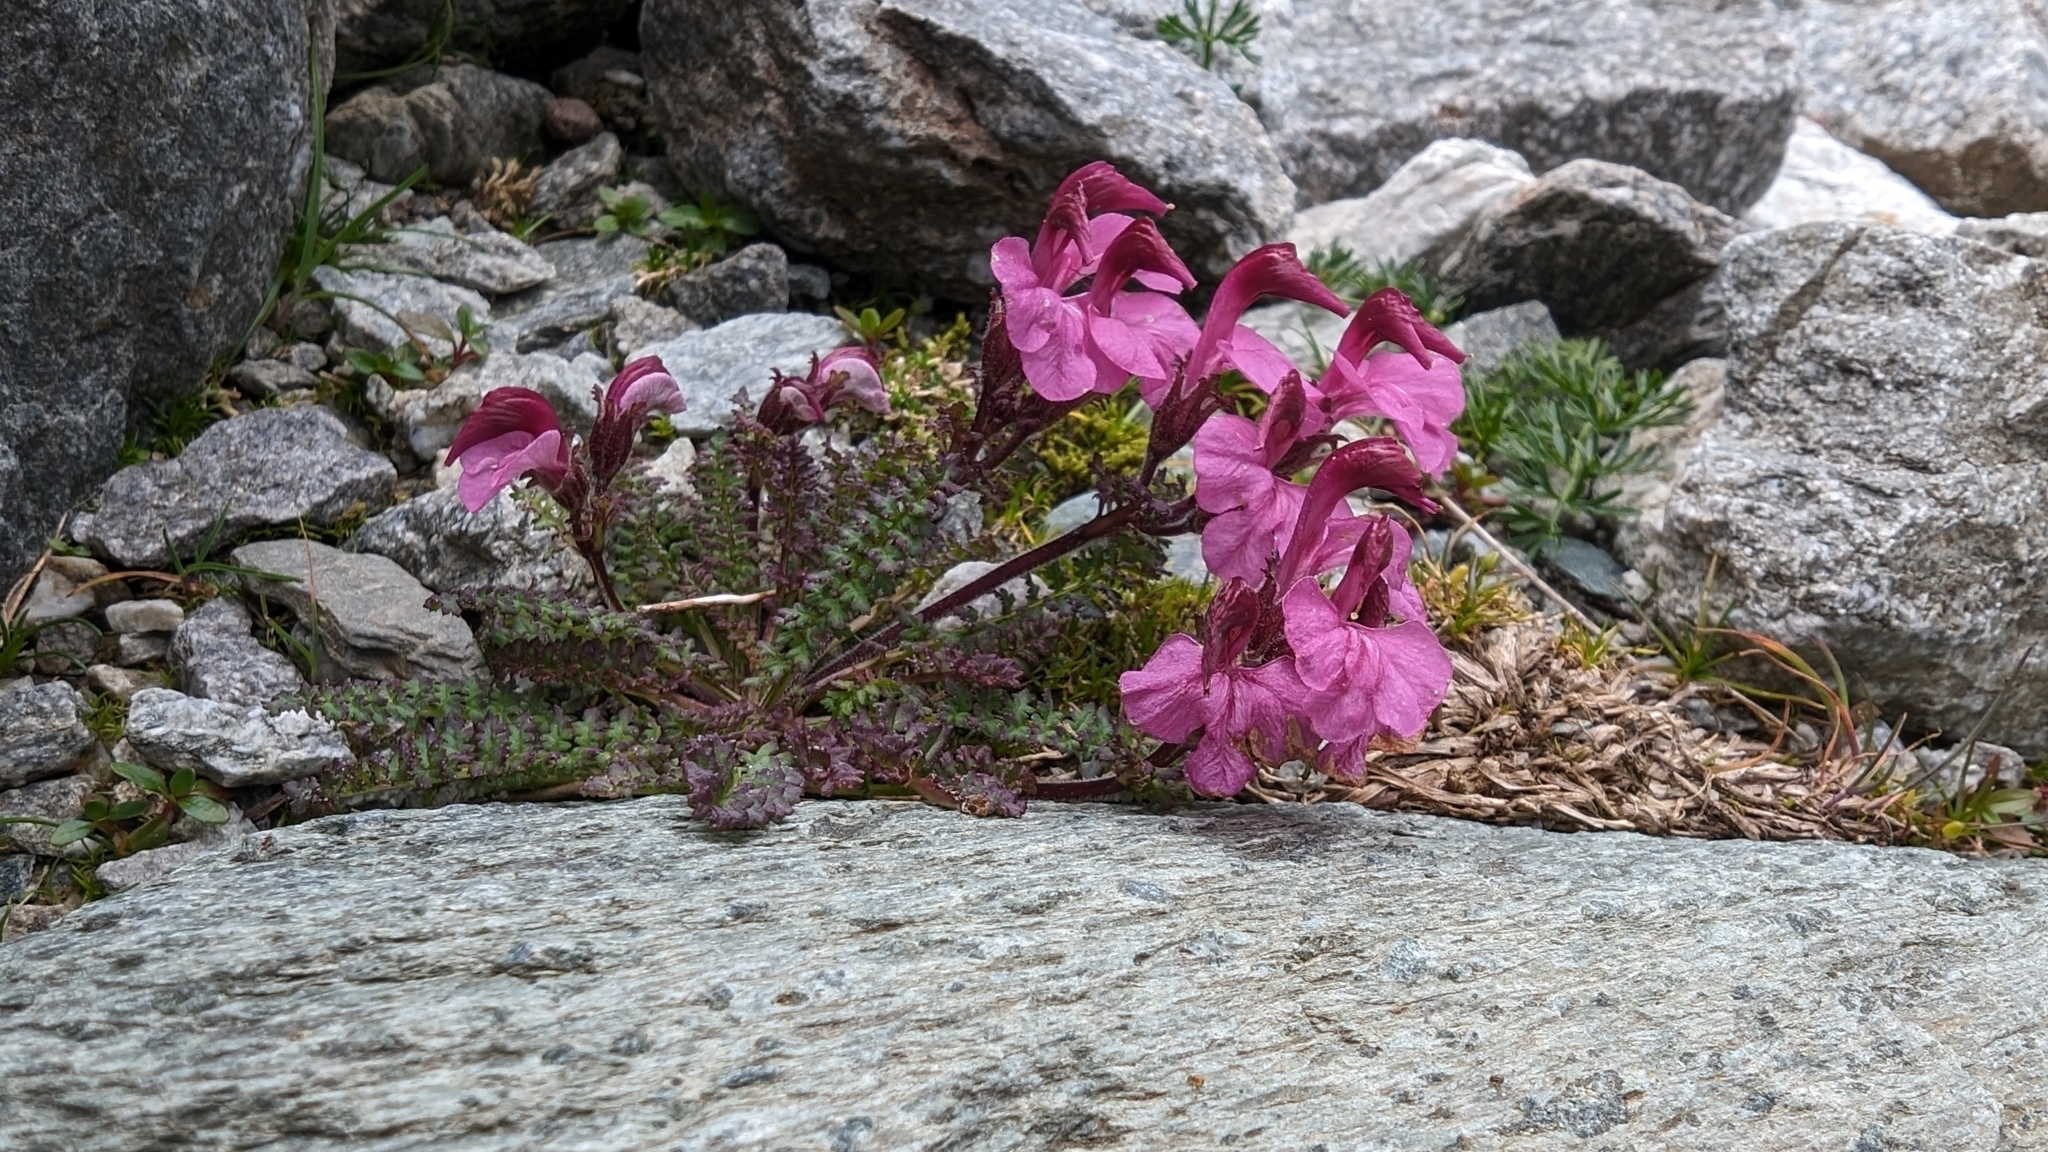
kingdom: Plantae
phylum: Tracheophyta
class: Magnoliopsida
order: Lamiales
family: Orobanchaceae
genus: Pedicularis
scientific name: Pedicularis kerneri
